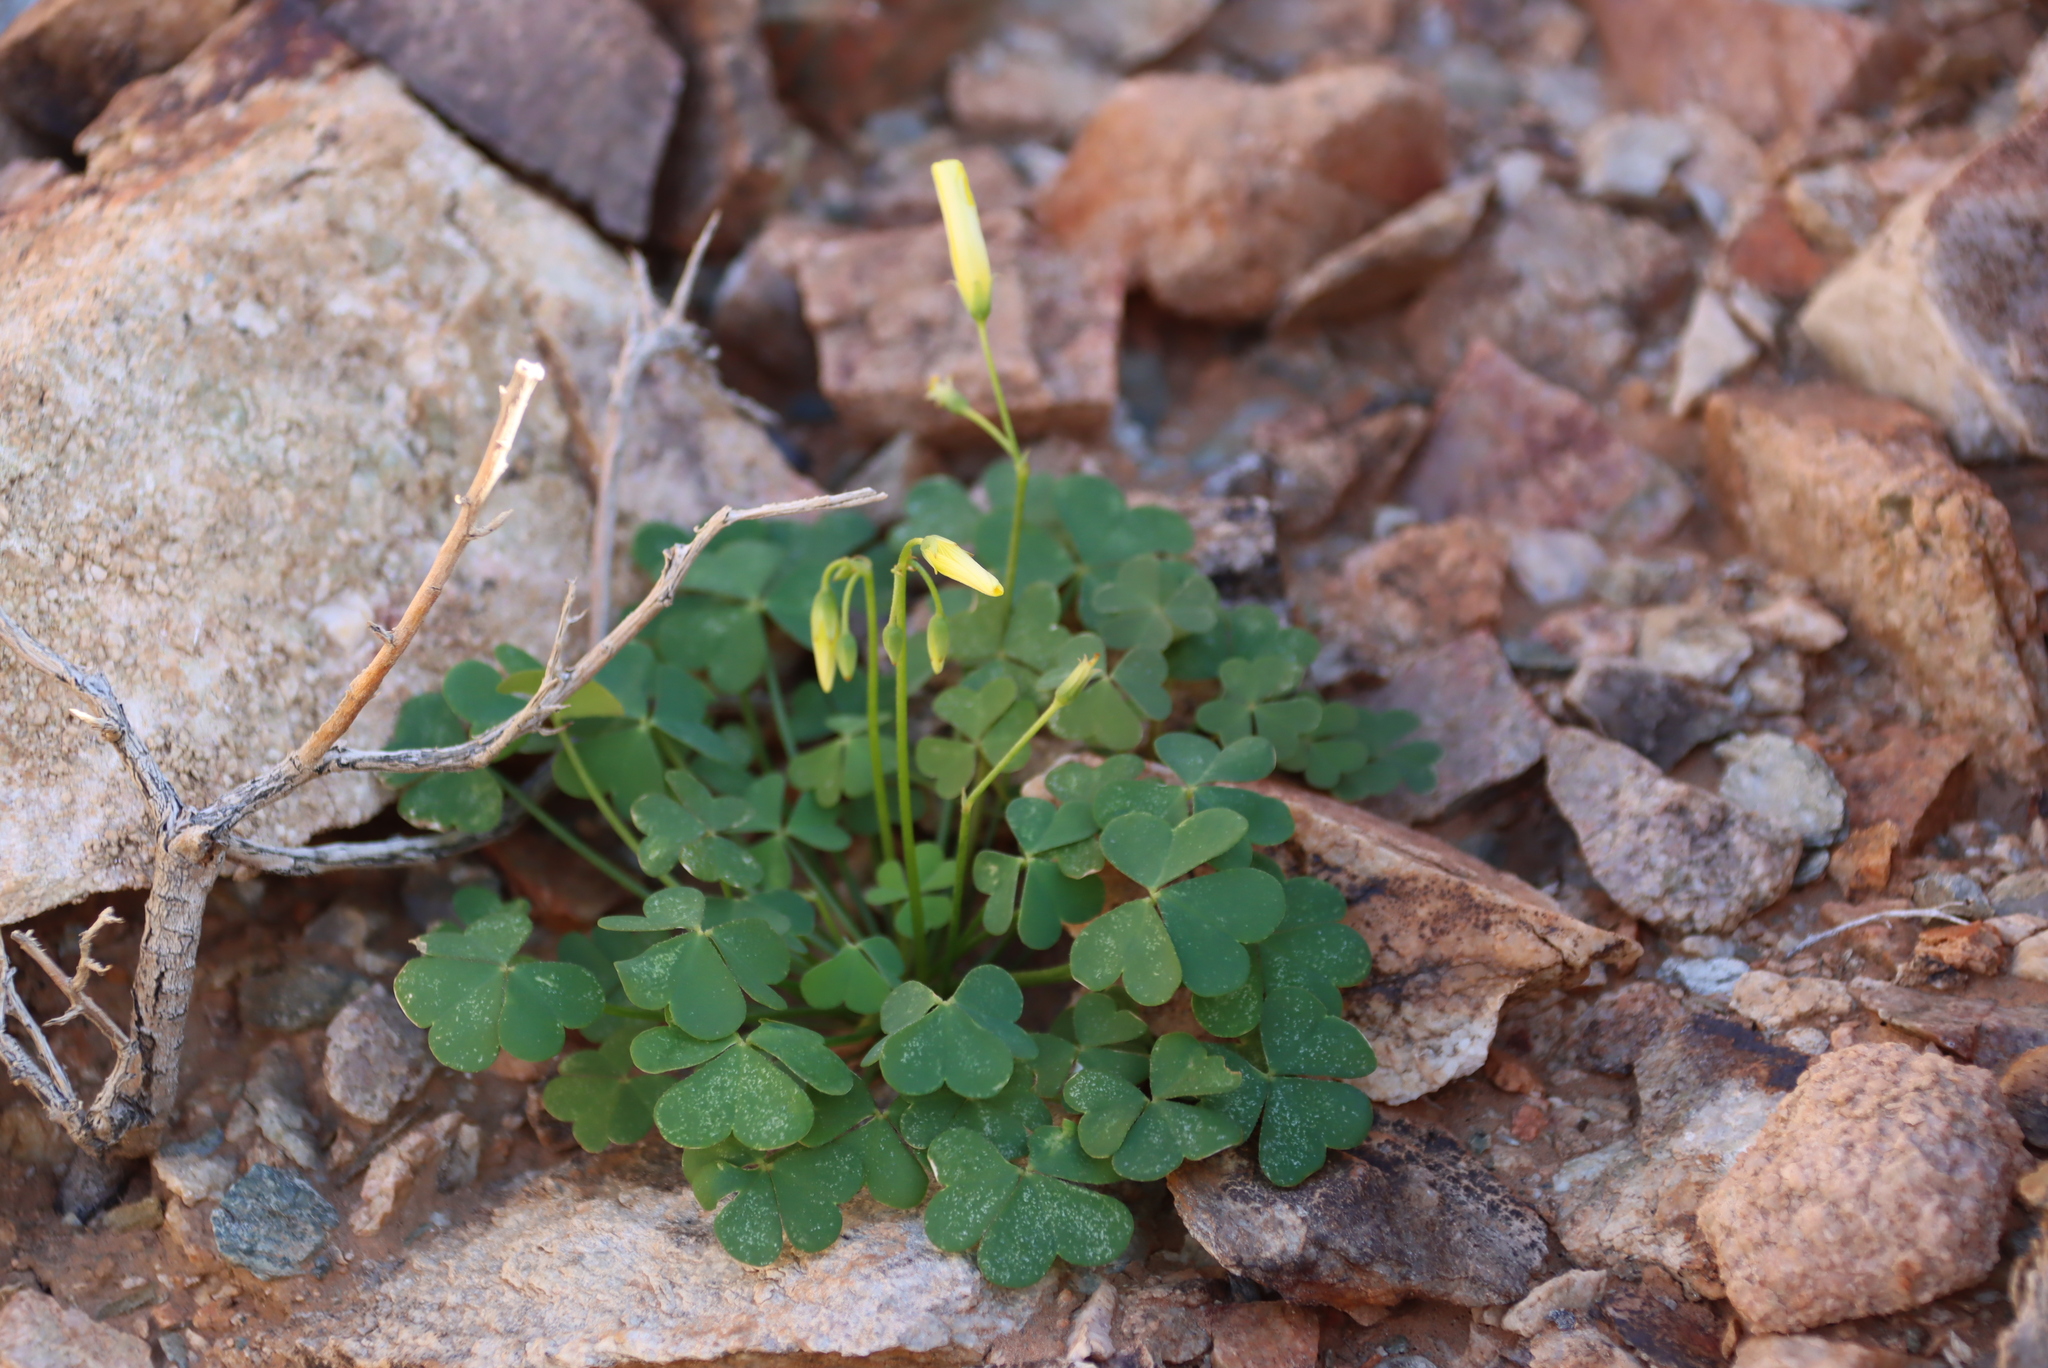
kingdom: Plantae
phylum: Tracheophyta
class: Magnoliopsida
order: Oxalidales
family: Oxalidaceae
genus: Oxalis
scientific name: Oxalis copiosa
